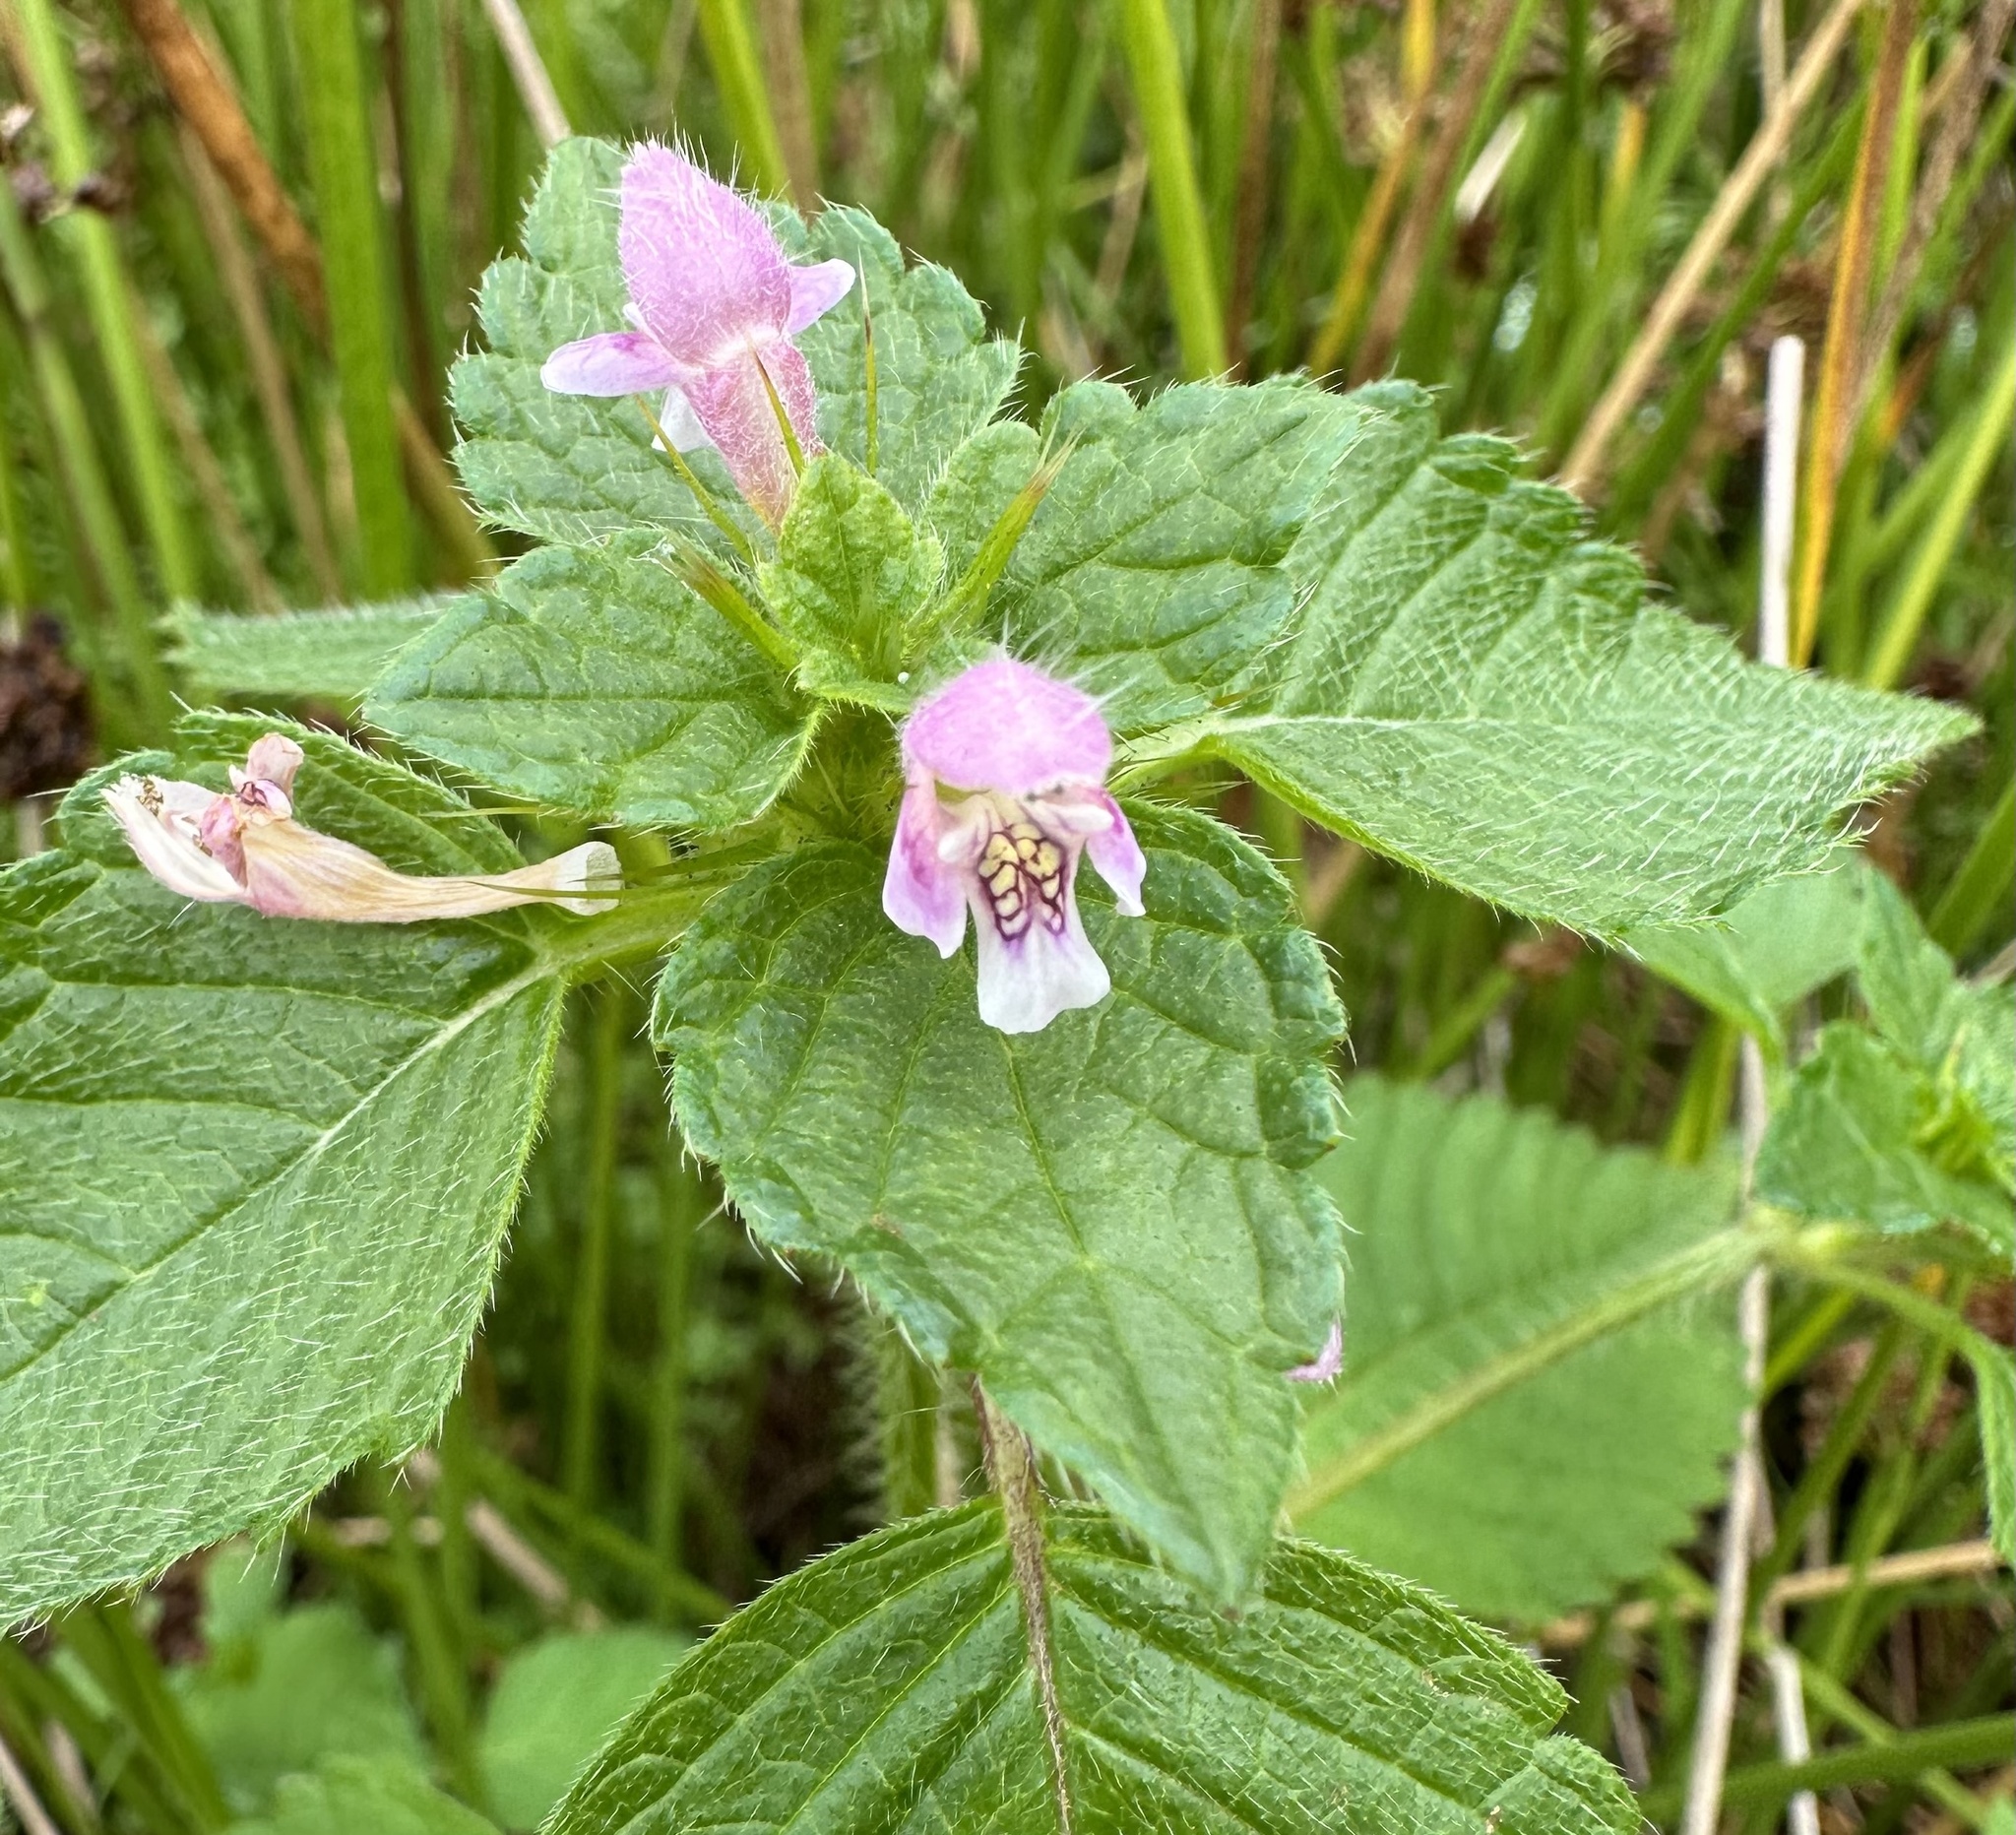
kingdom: Plantae
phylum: Tracheophyta
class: Magnoliopsida
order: Lamiales
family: Lamiaceae
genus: Galeopsis
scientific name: Galeopsis tetrahit
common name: Common hemp-nettle
